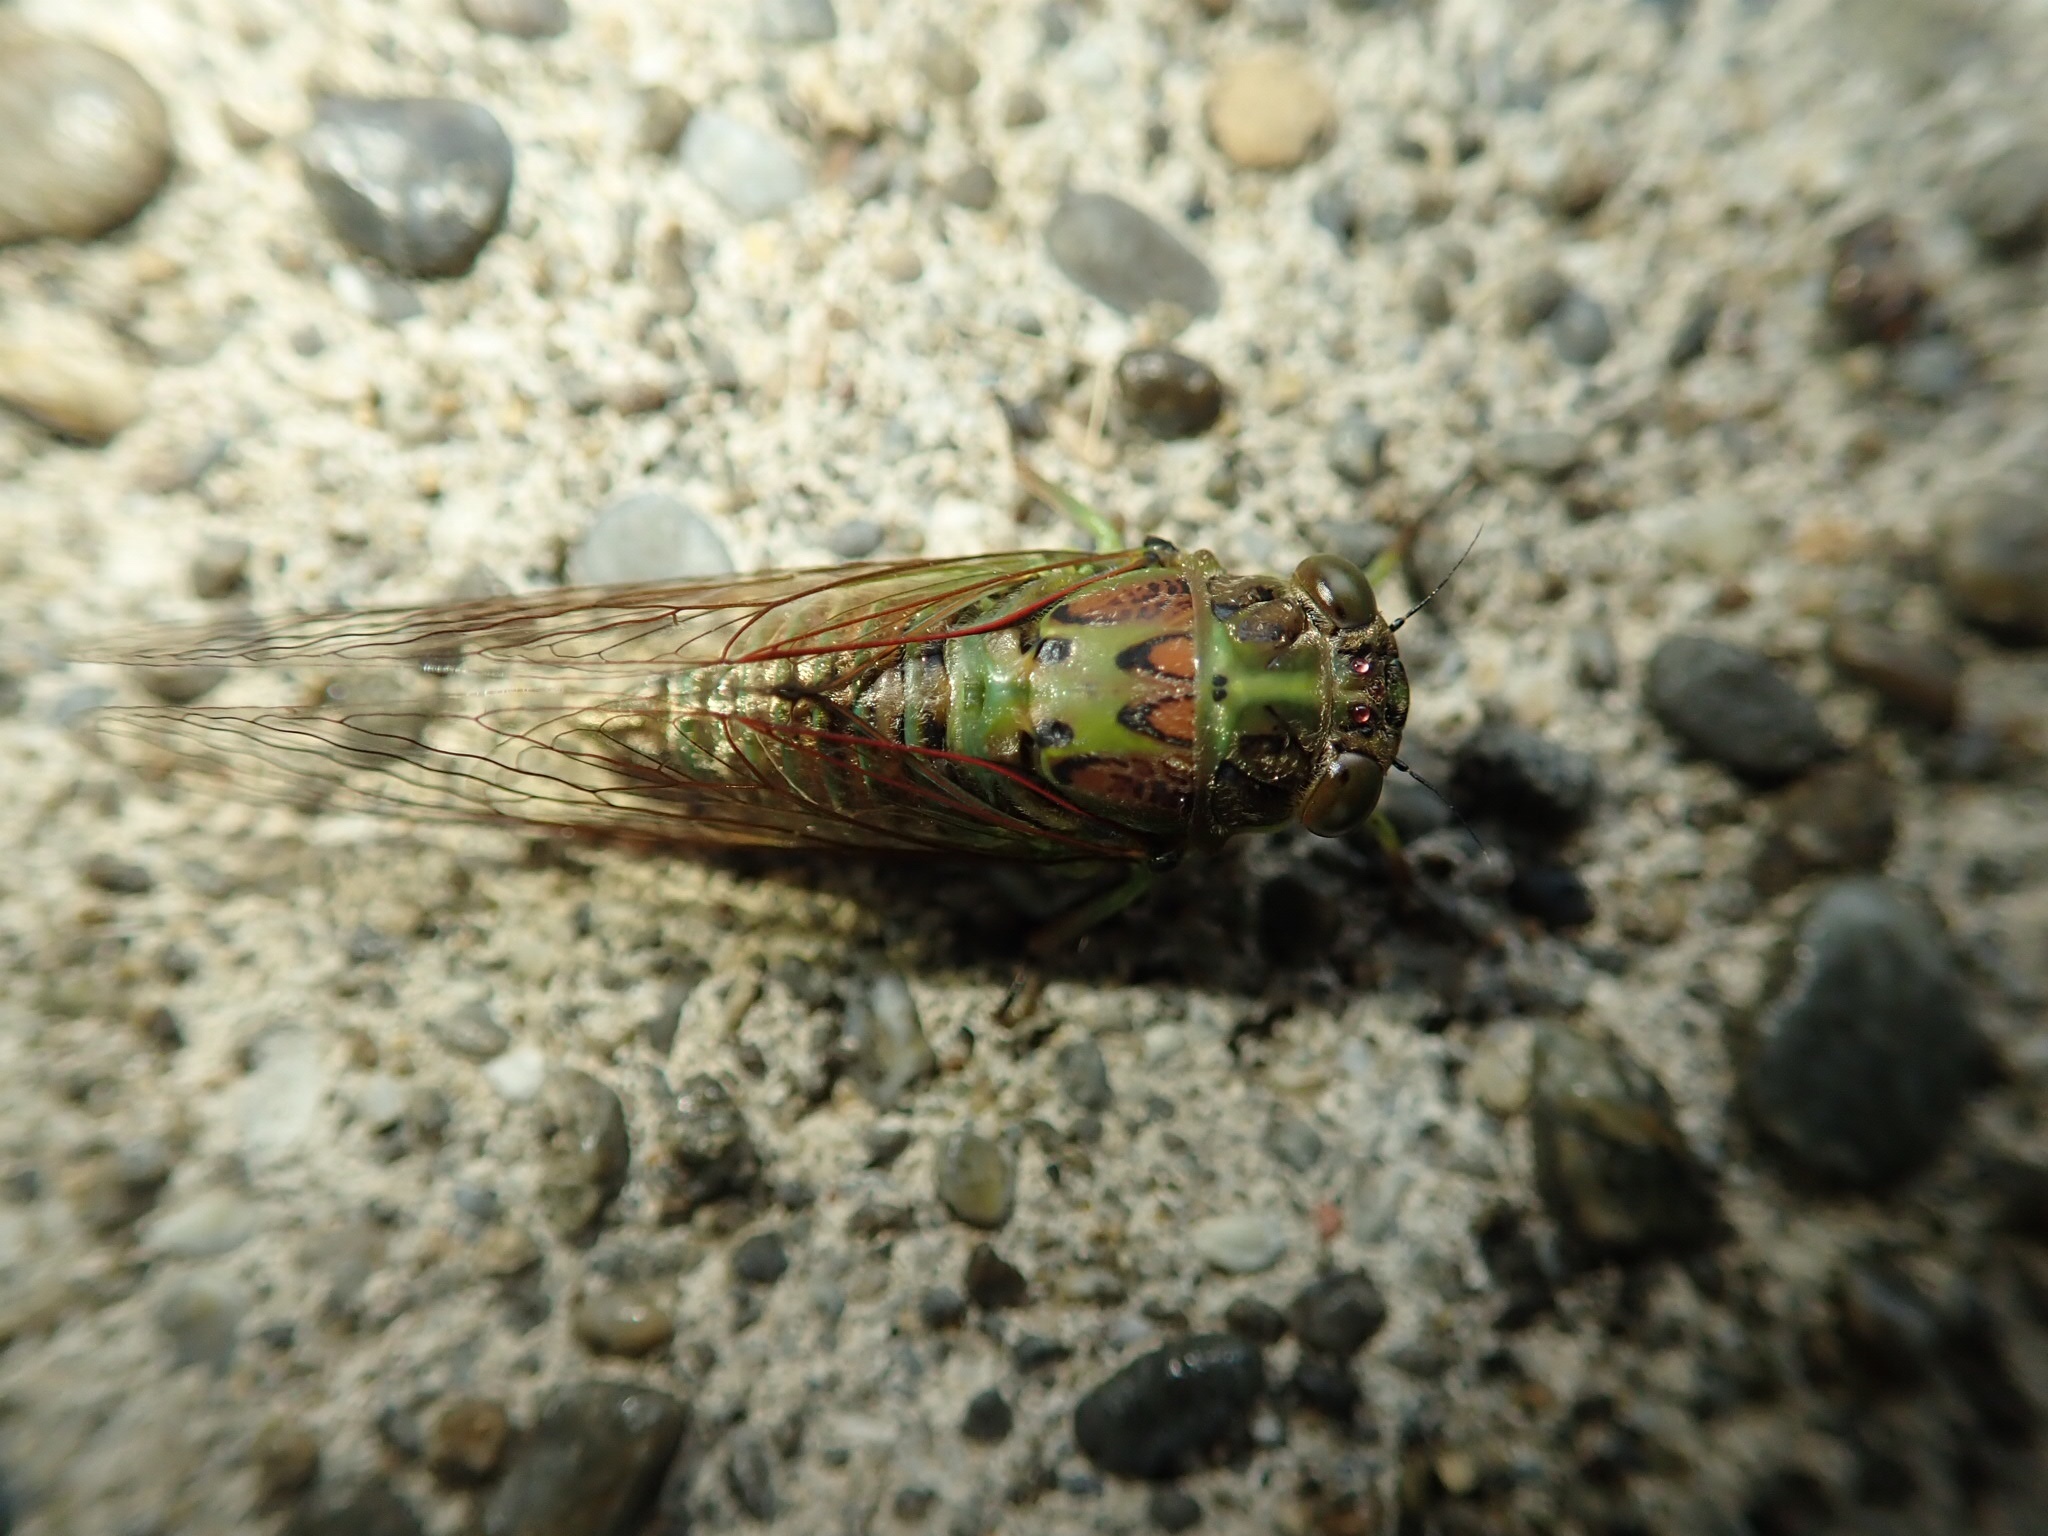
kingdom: Animalia
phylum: Arthropoda
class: Insecta
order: Hemiptera
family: Cicadidae
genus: Kikihia
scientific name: Kikihia scutellaris
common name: Lesser bronze cicada
